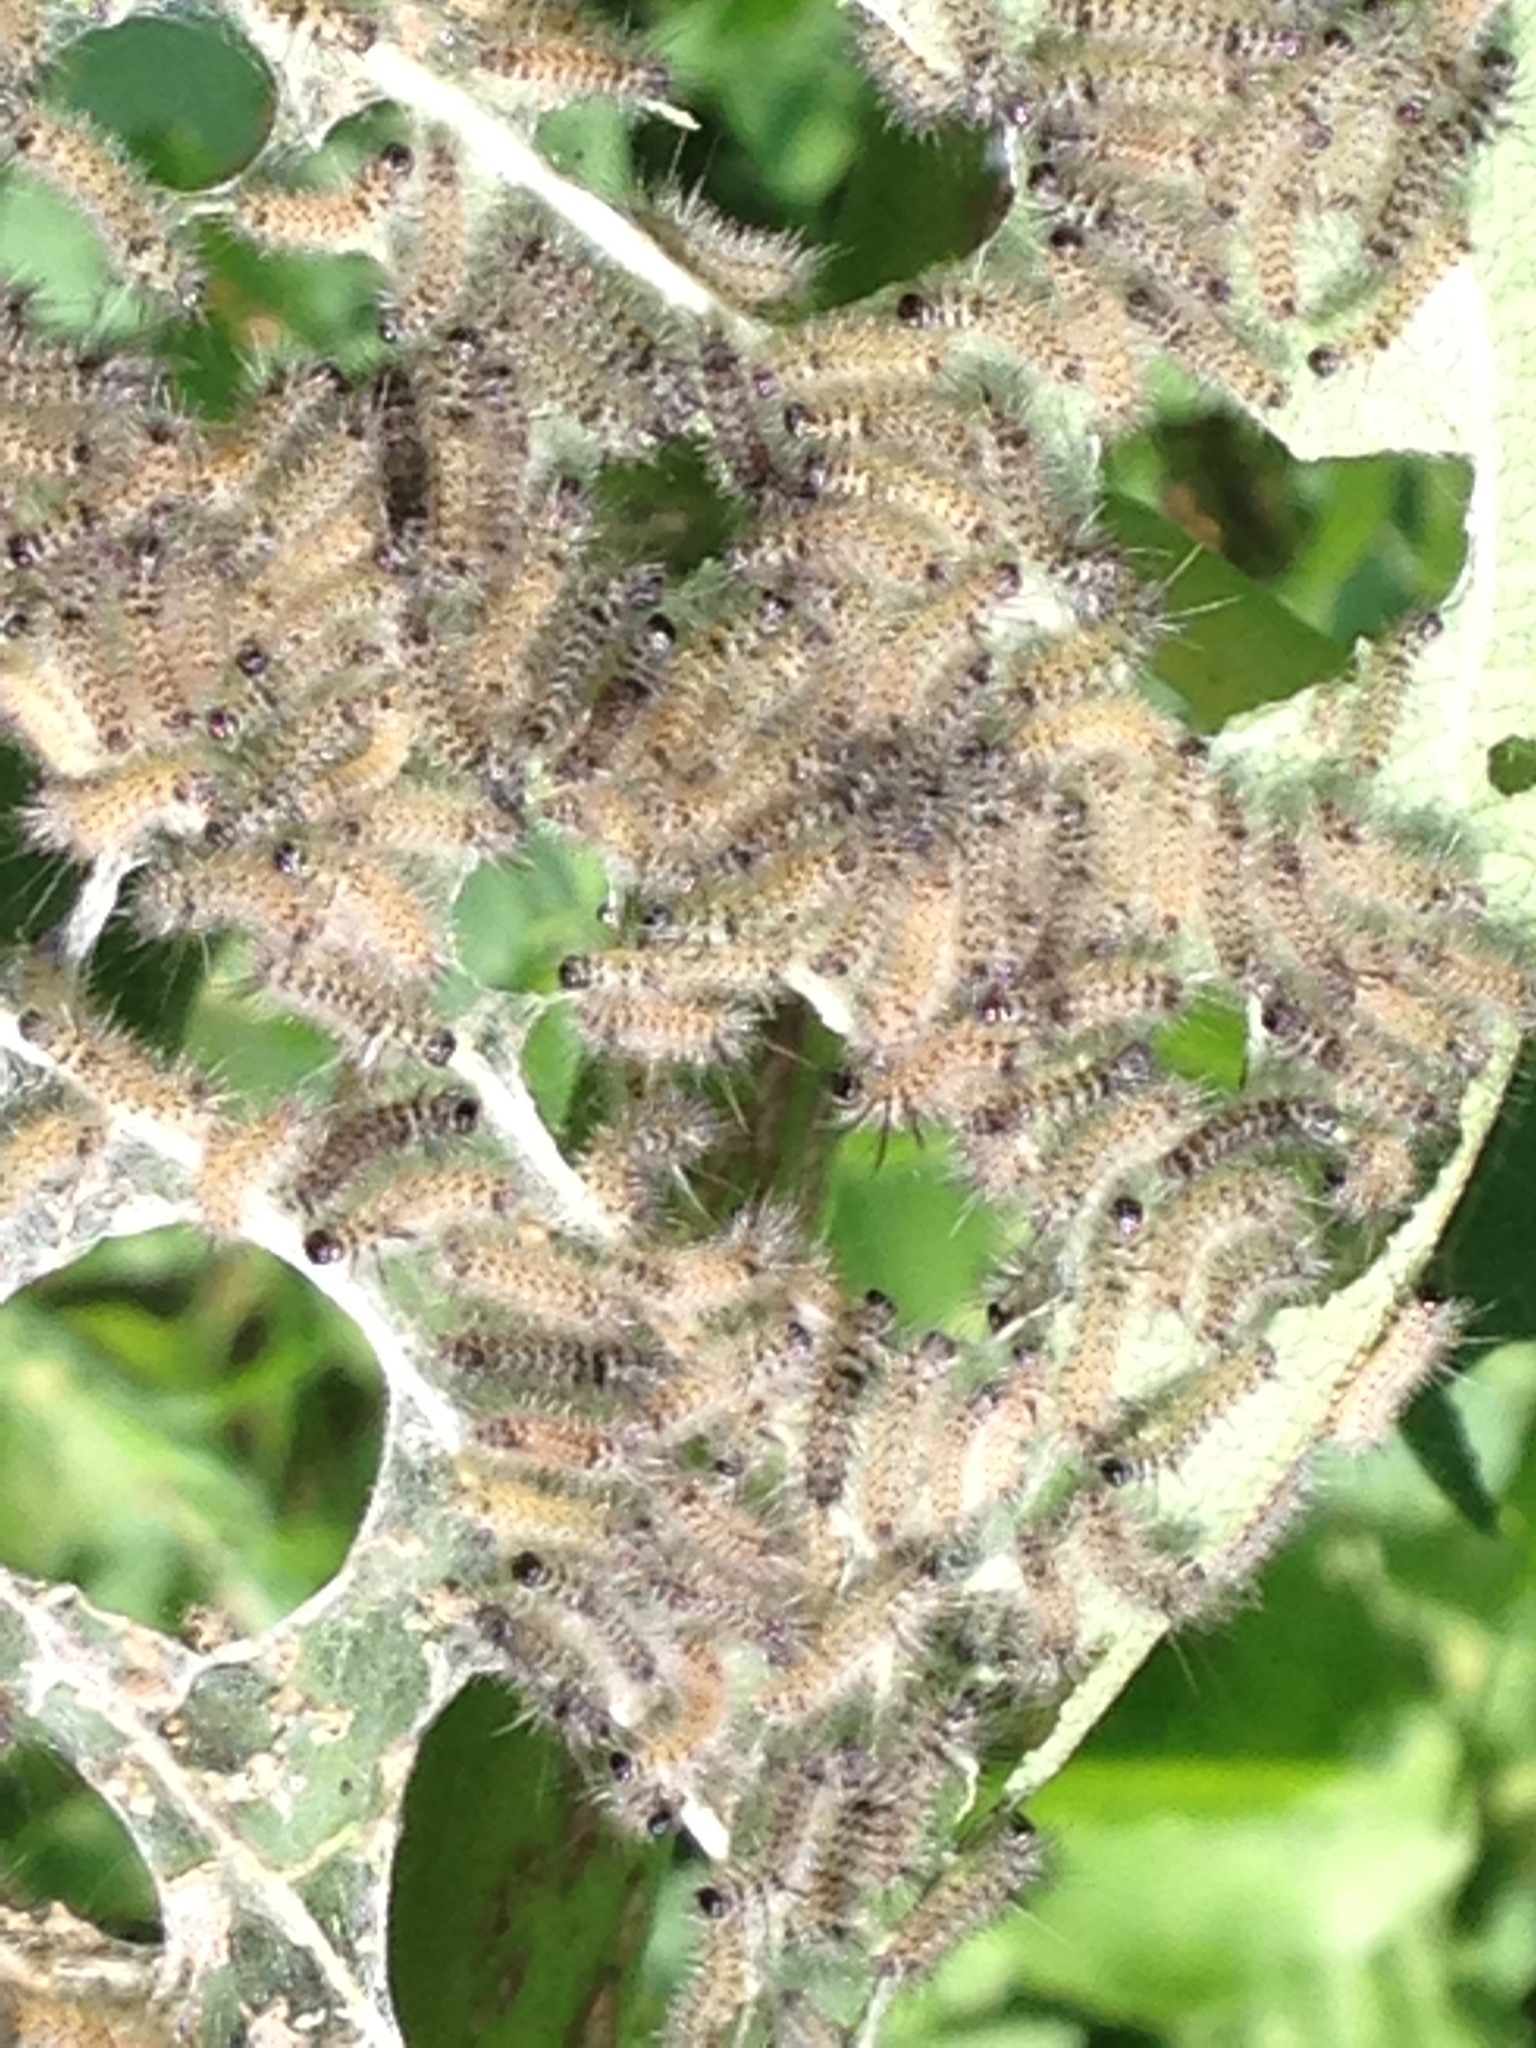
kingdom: Animalia
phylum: Arthropoda
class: Insecta
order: Lepidoptera
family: Erebidae
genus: Euchaetes
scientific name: Euchaetes egle
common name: Milkweed tussock moth
